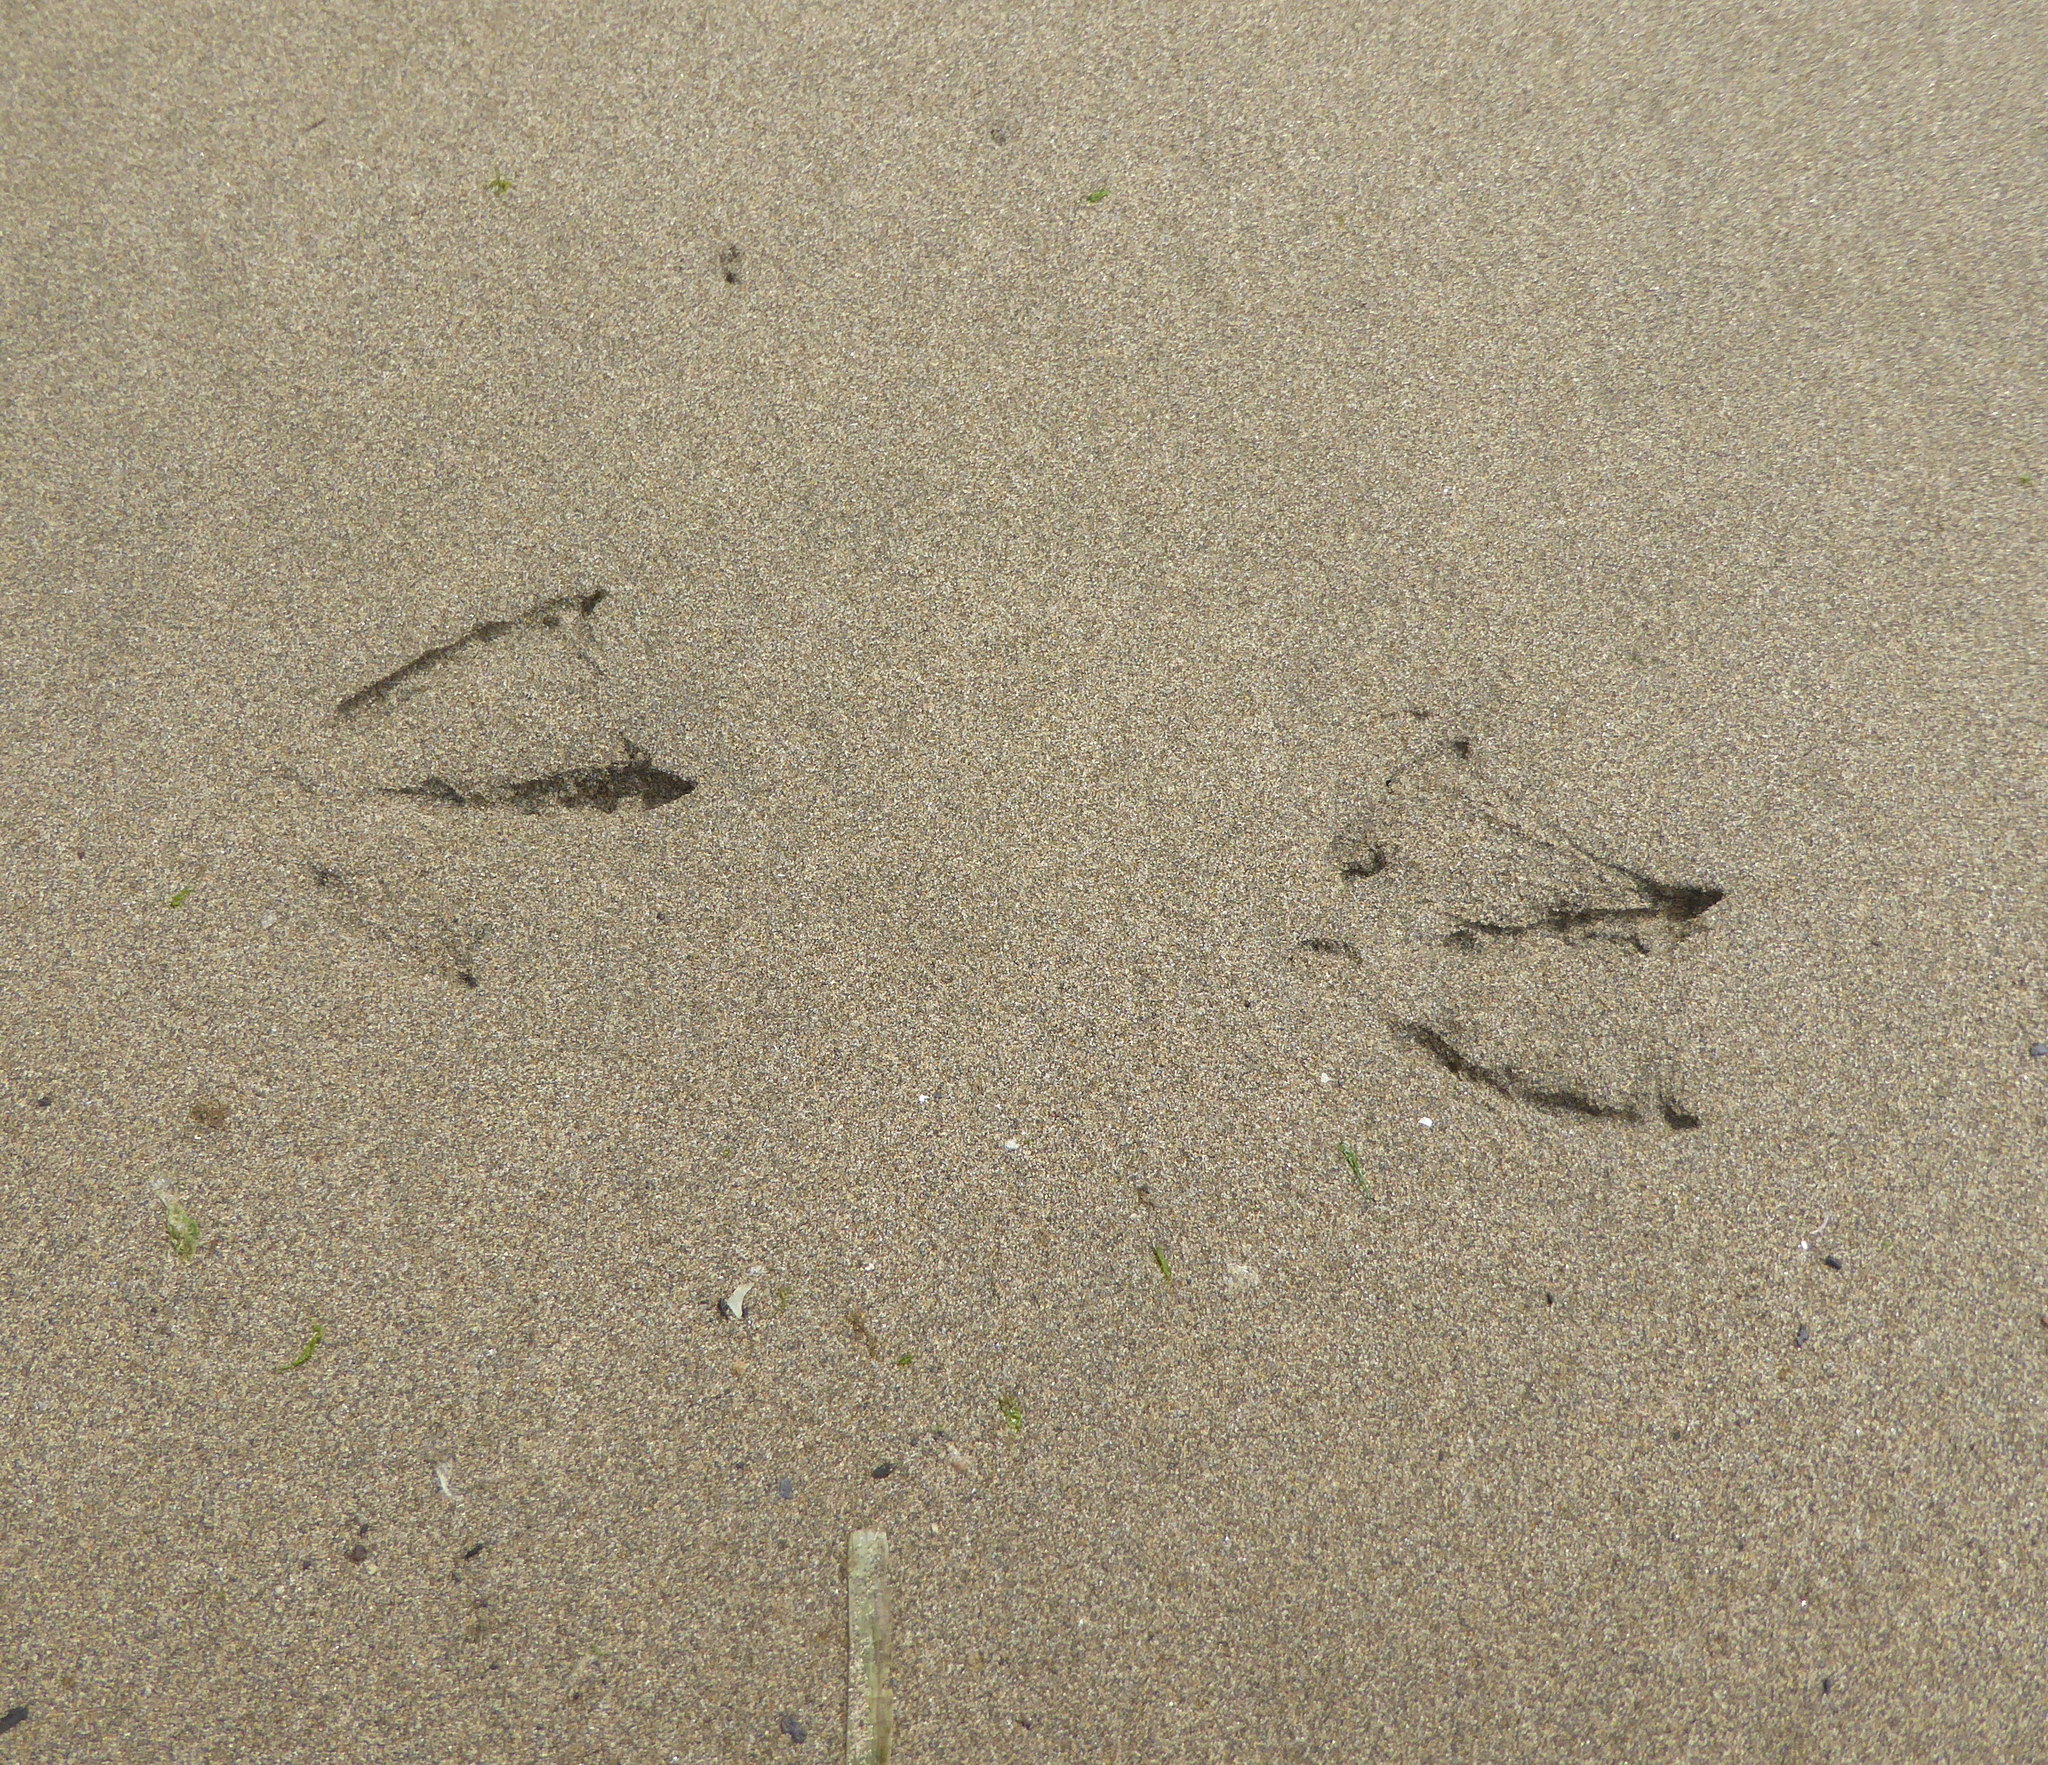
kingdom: Animalia
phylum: Chordata
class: Aves
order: Charadriiformes
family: Laridae
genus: Larus
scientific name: Larus
